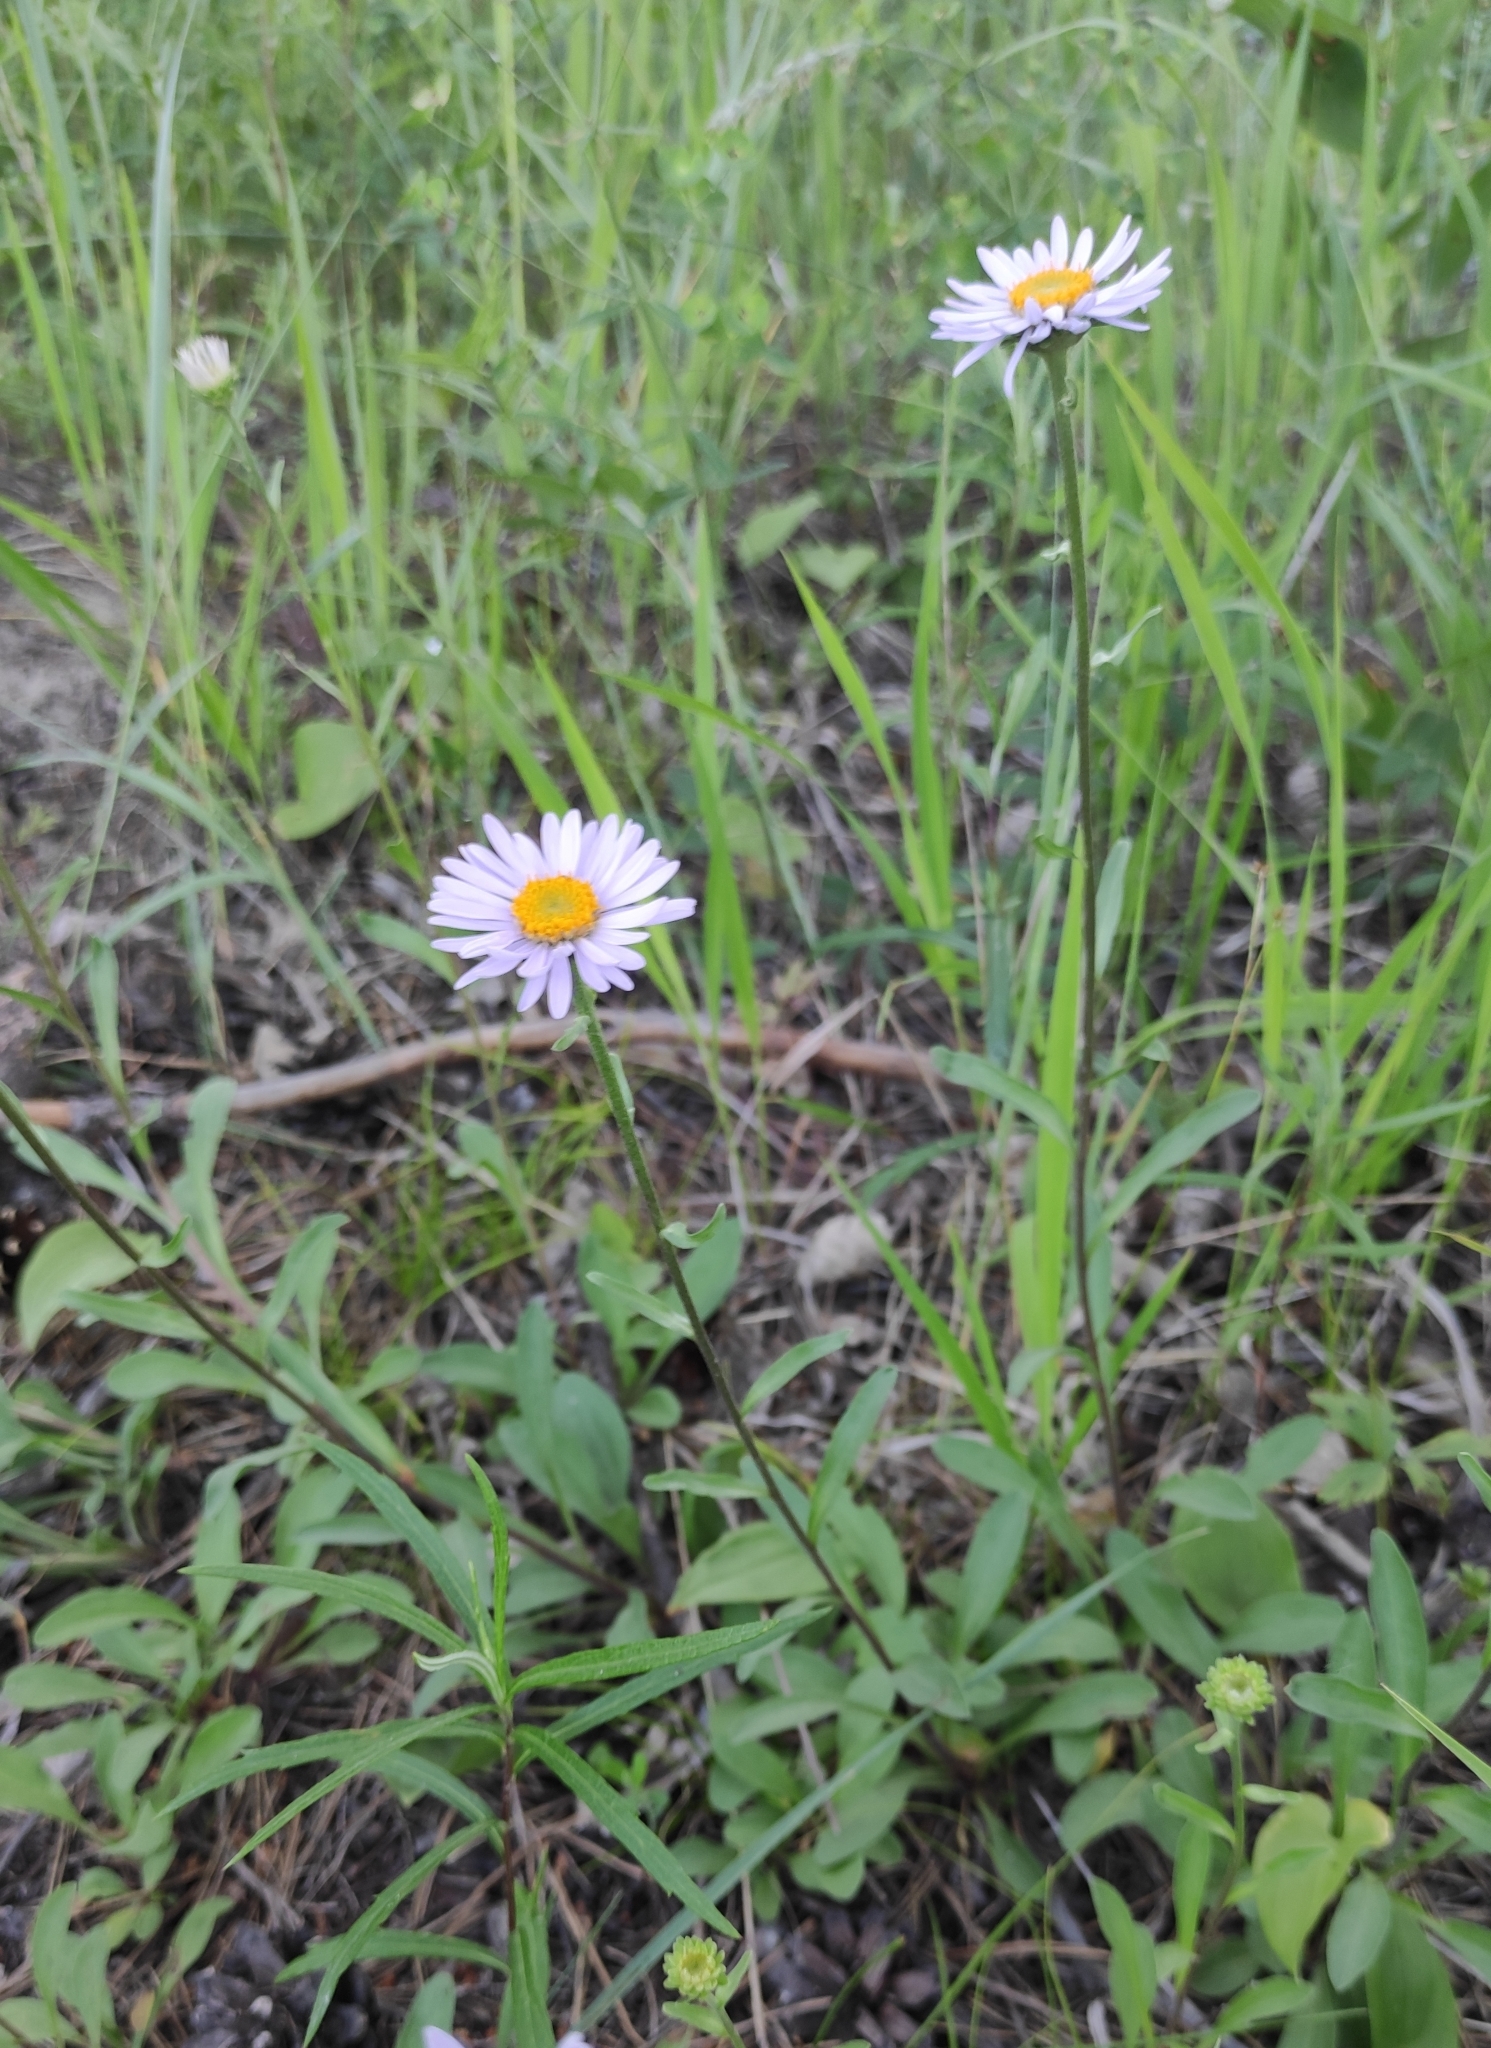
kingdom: Plantae
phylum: Tracheophyta
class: Magnoliopsida
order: Asterales
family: Asteraceae
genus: Aster
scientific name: Aster alpinus
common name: Alpine aster
